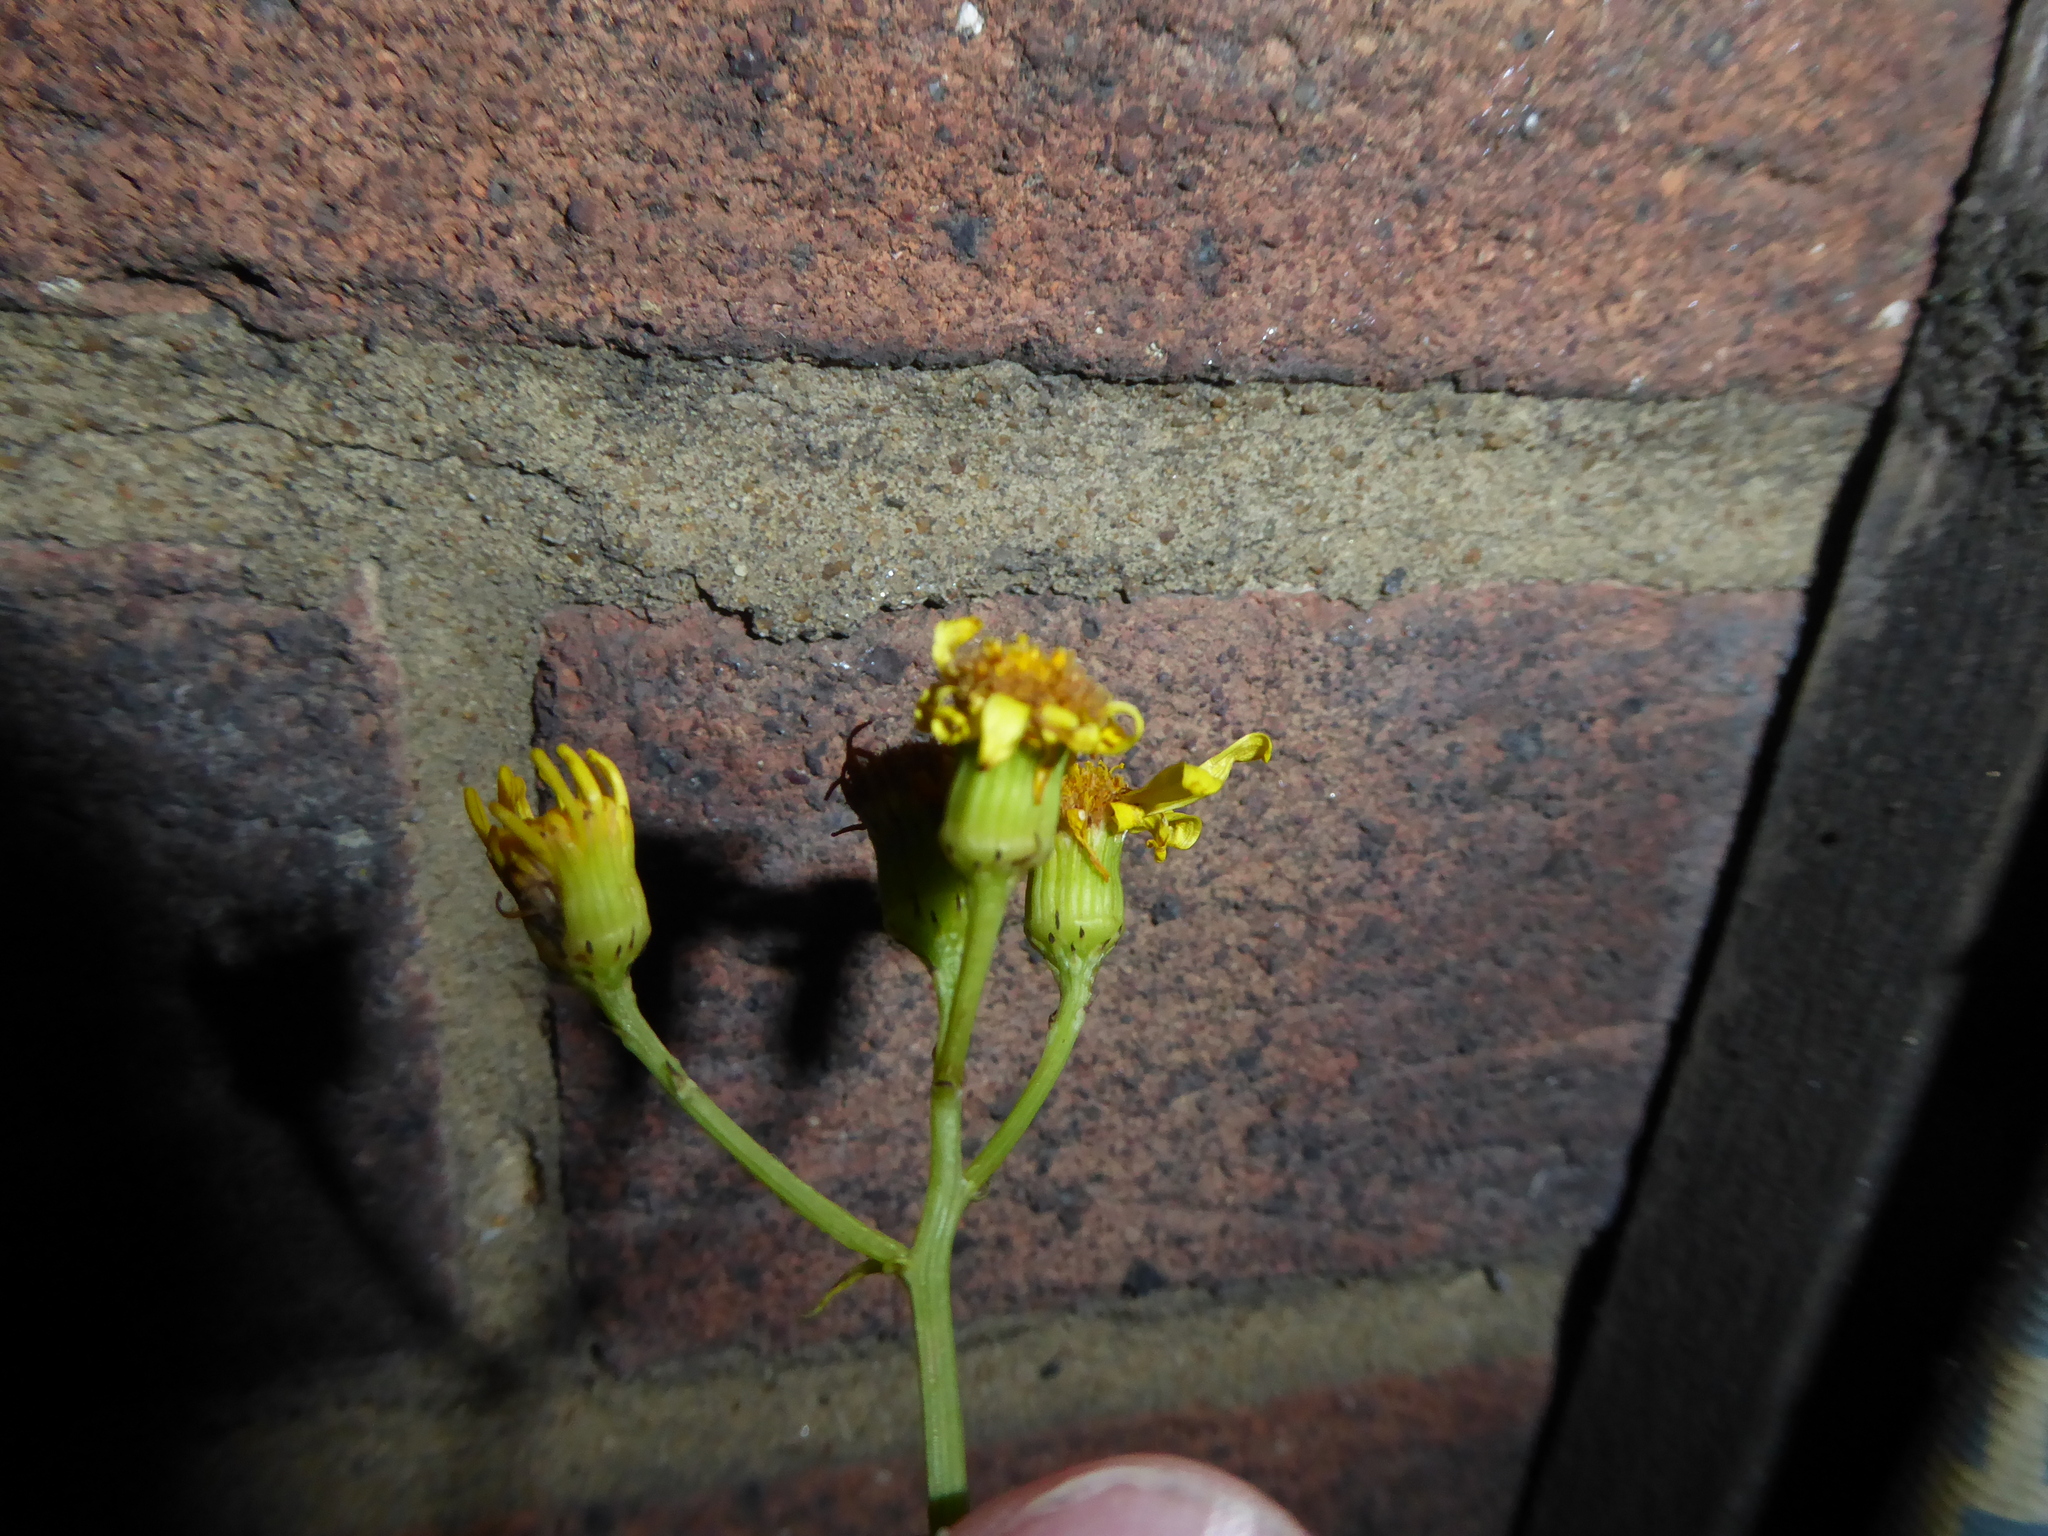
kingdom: Plantae
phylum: Tracheophyta
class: Magnoliopsida
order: Asterales
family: Asteraceae
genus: Senecio
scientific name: Senecio squalidus
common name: Oxford ragwort
